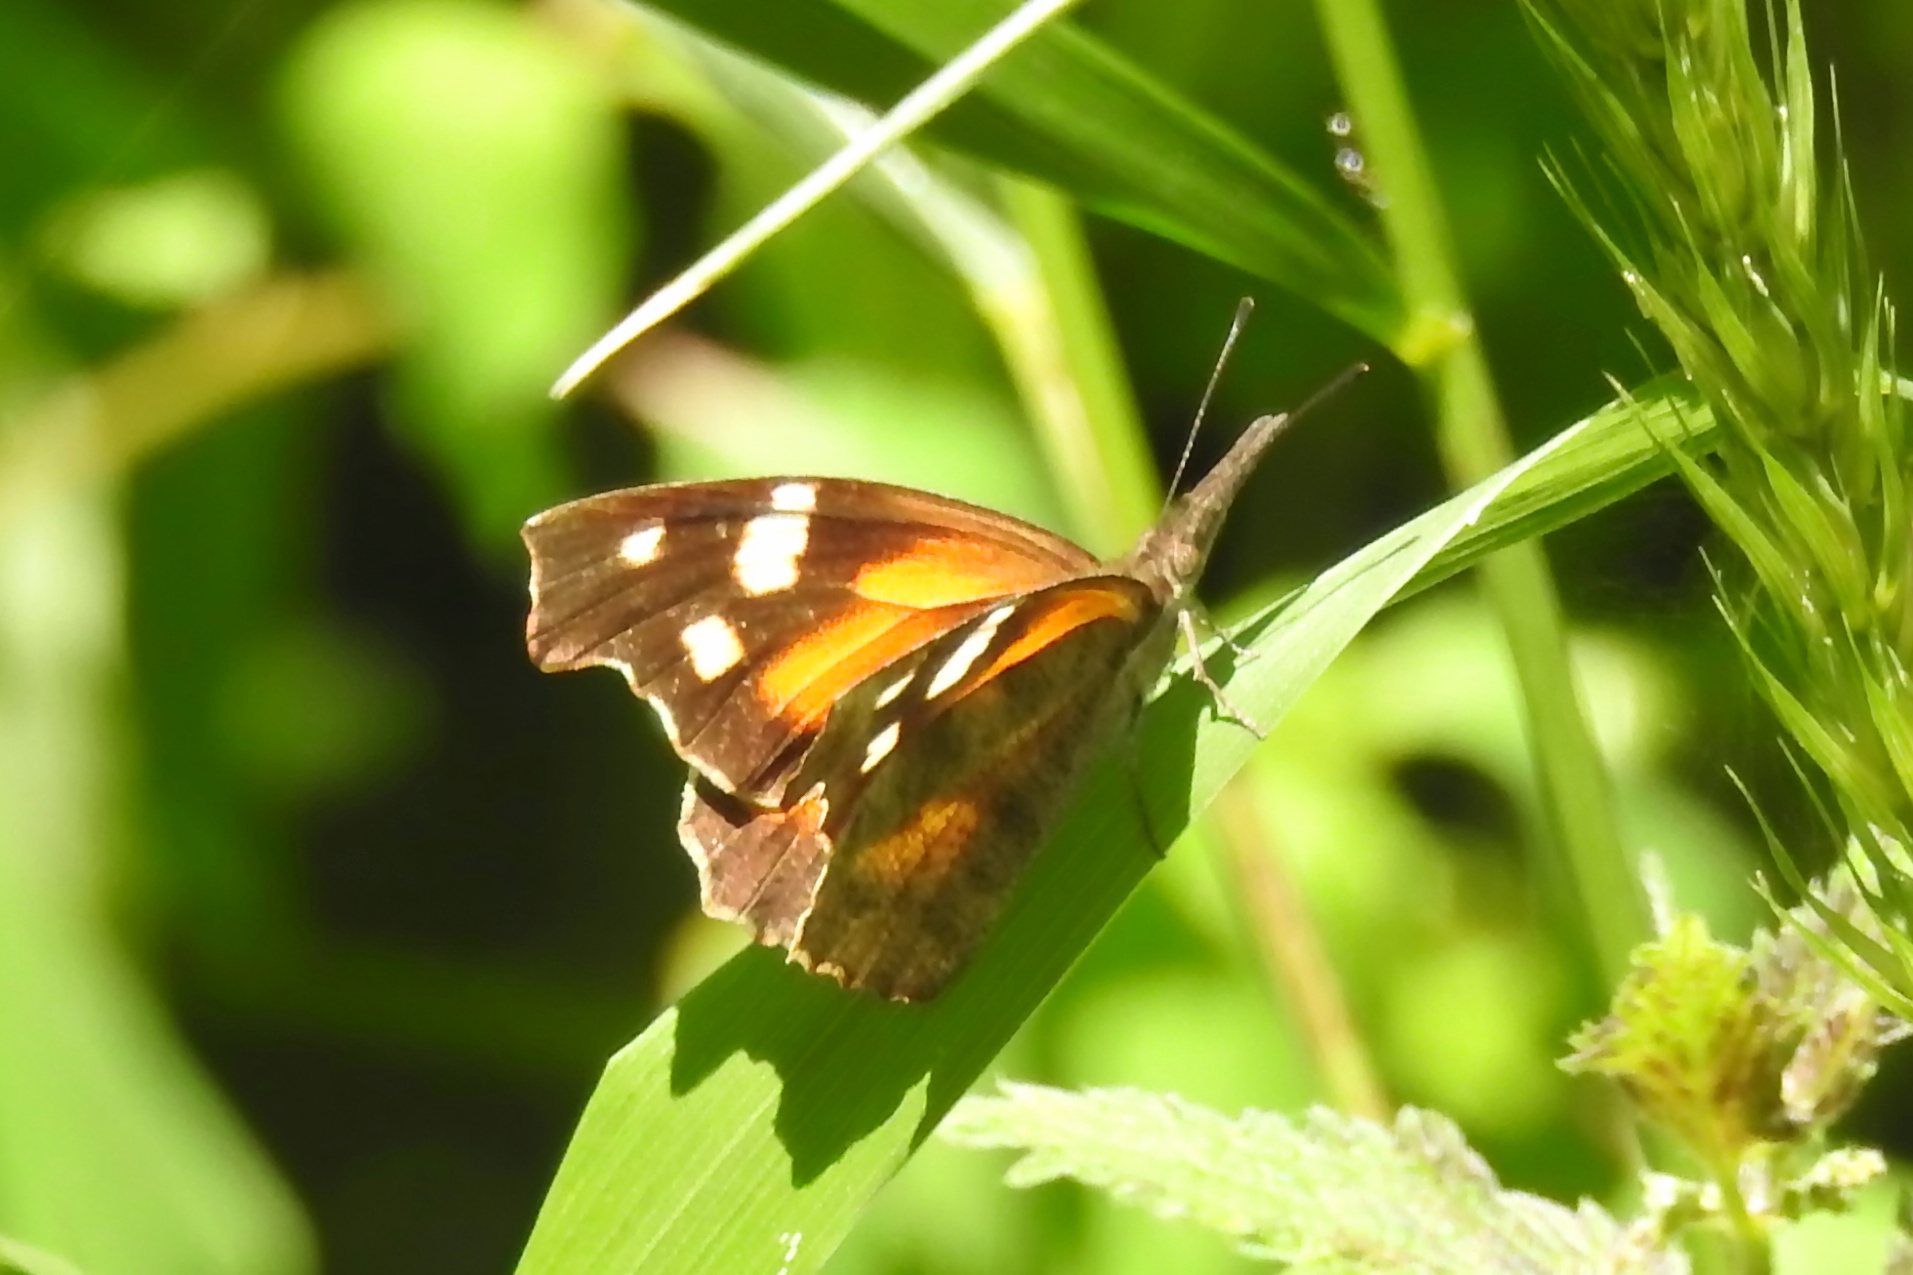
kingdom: Animalia
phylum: Arthropoda
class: Insecta
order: Lepidoptera
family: Nymphalidae
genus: Libytheana
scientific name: Libytheana carinenta
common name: American snout
